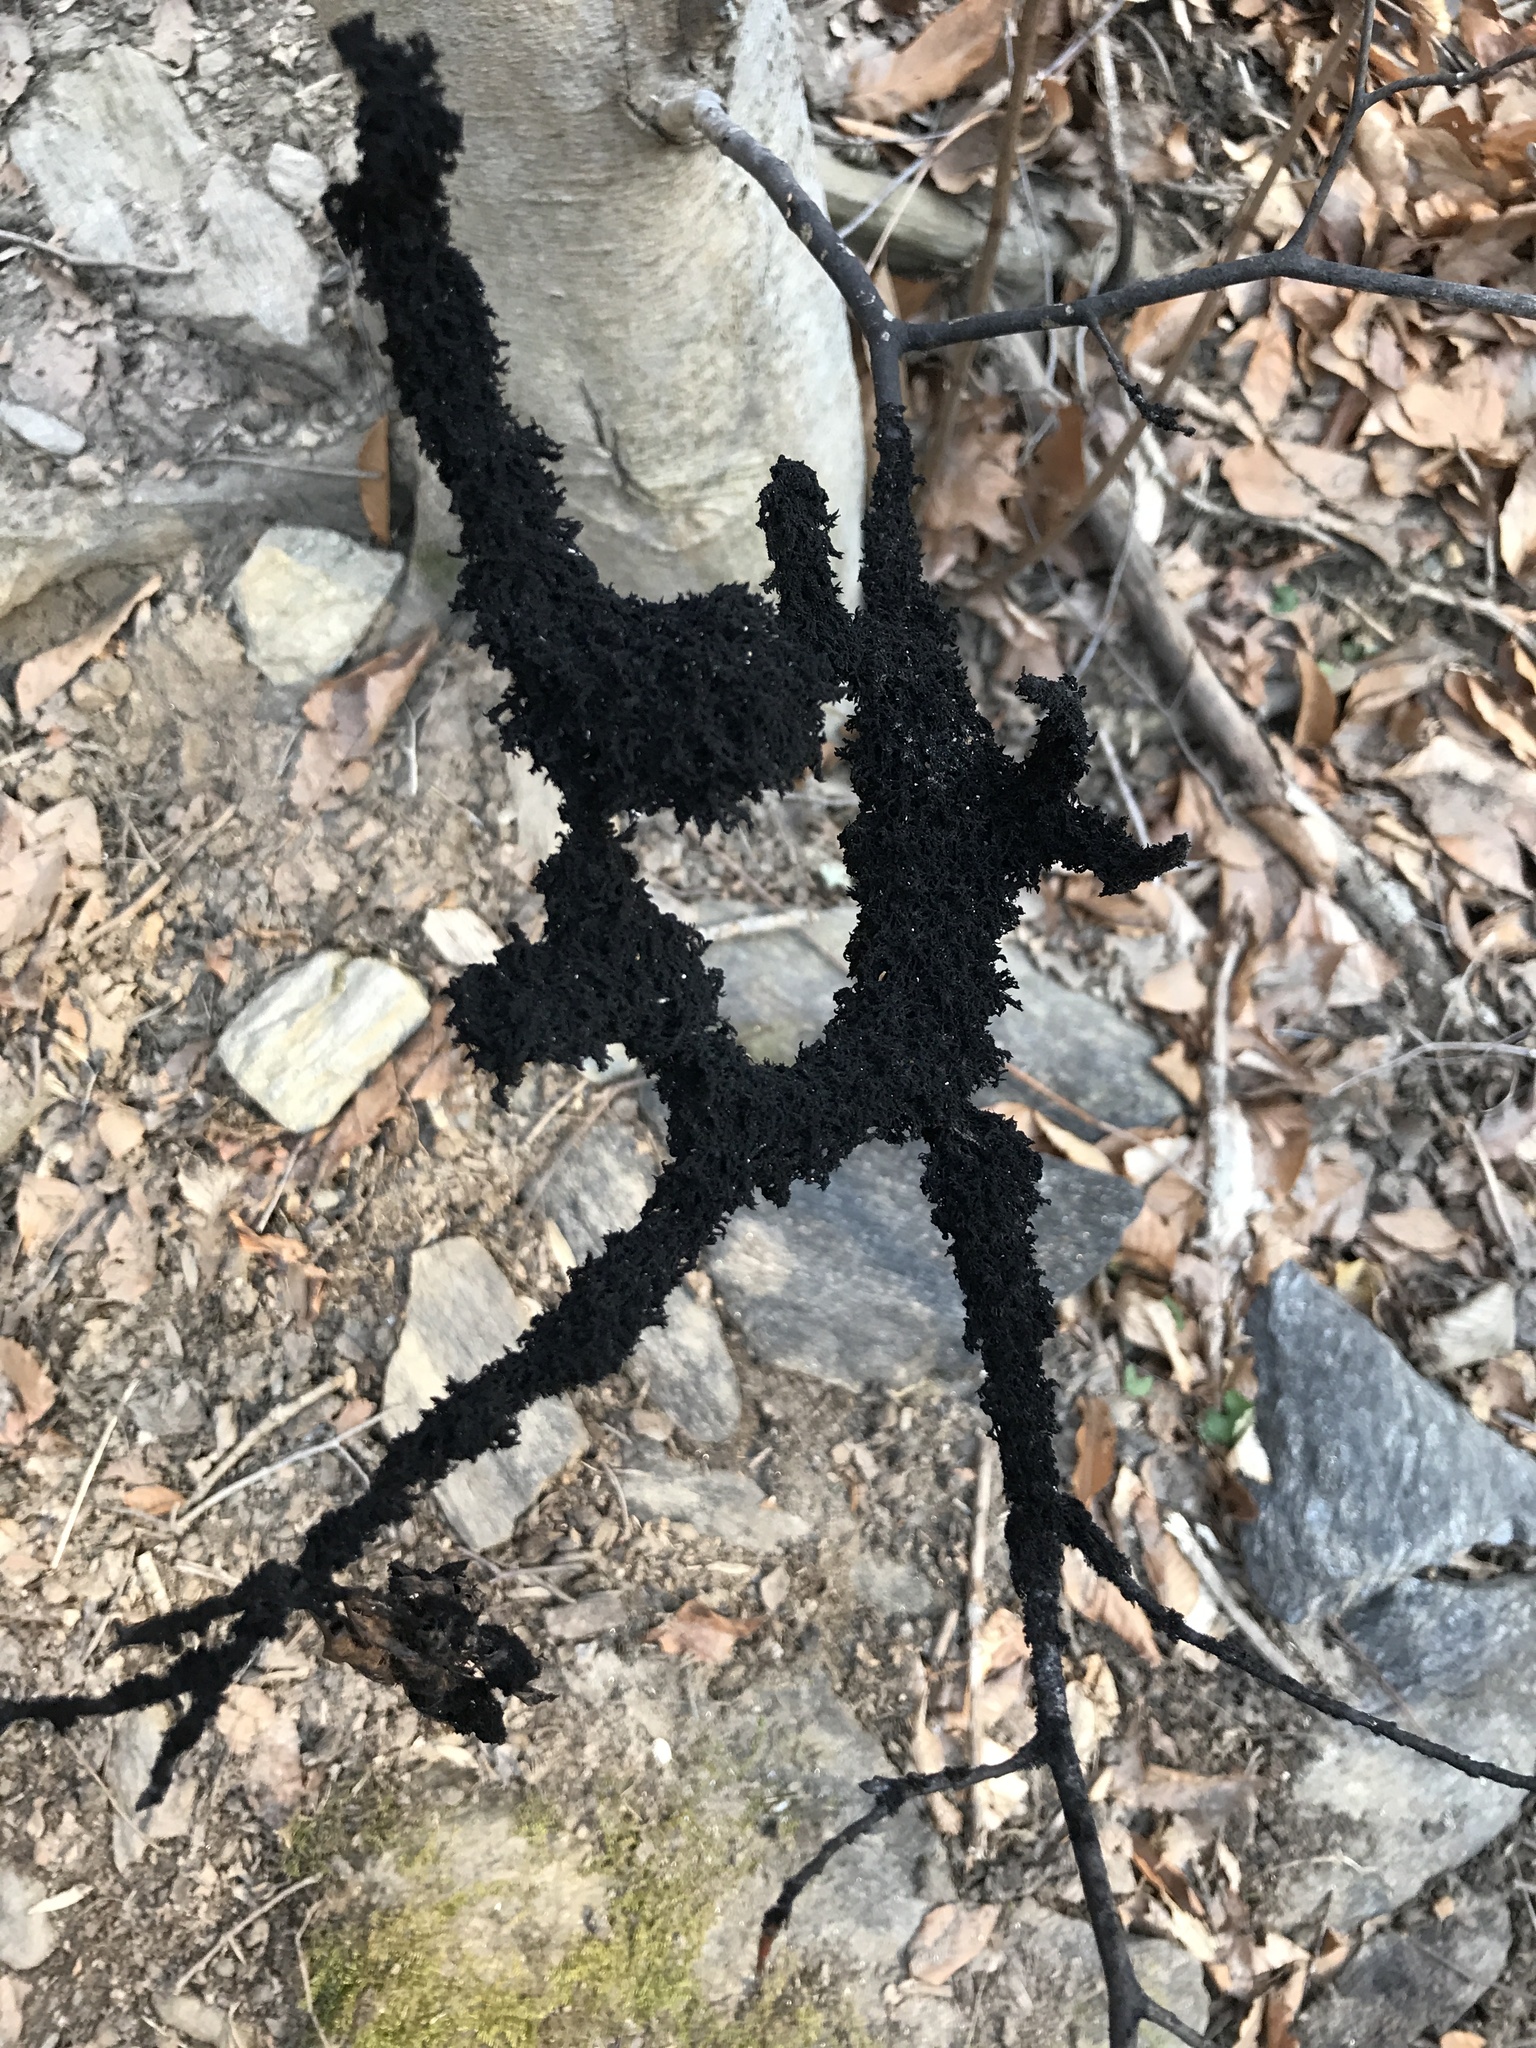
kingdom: Fungi
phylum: Ascomycota
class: Dothideomycetes
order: Capnodiales
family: Capnodiaceae
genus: Scorias
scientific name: Scorias spongiosa
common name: Black sooty mold
